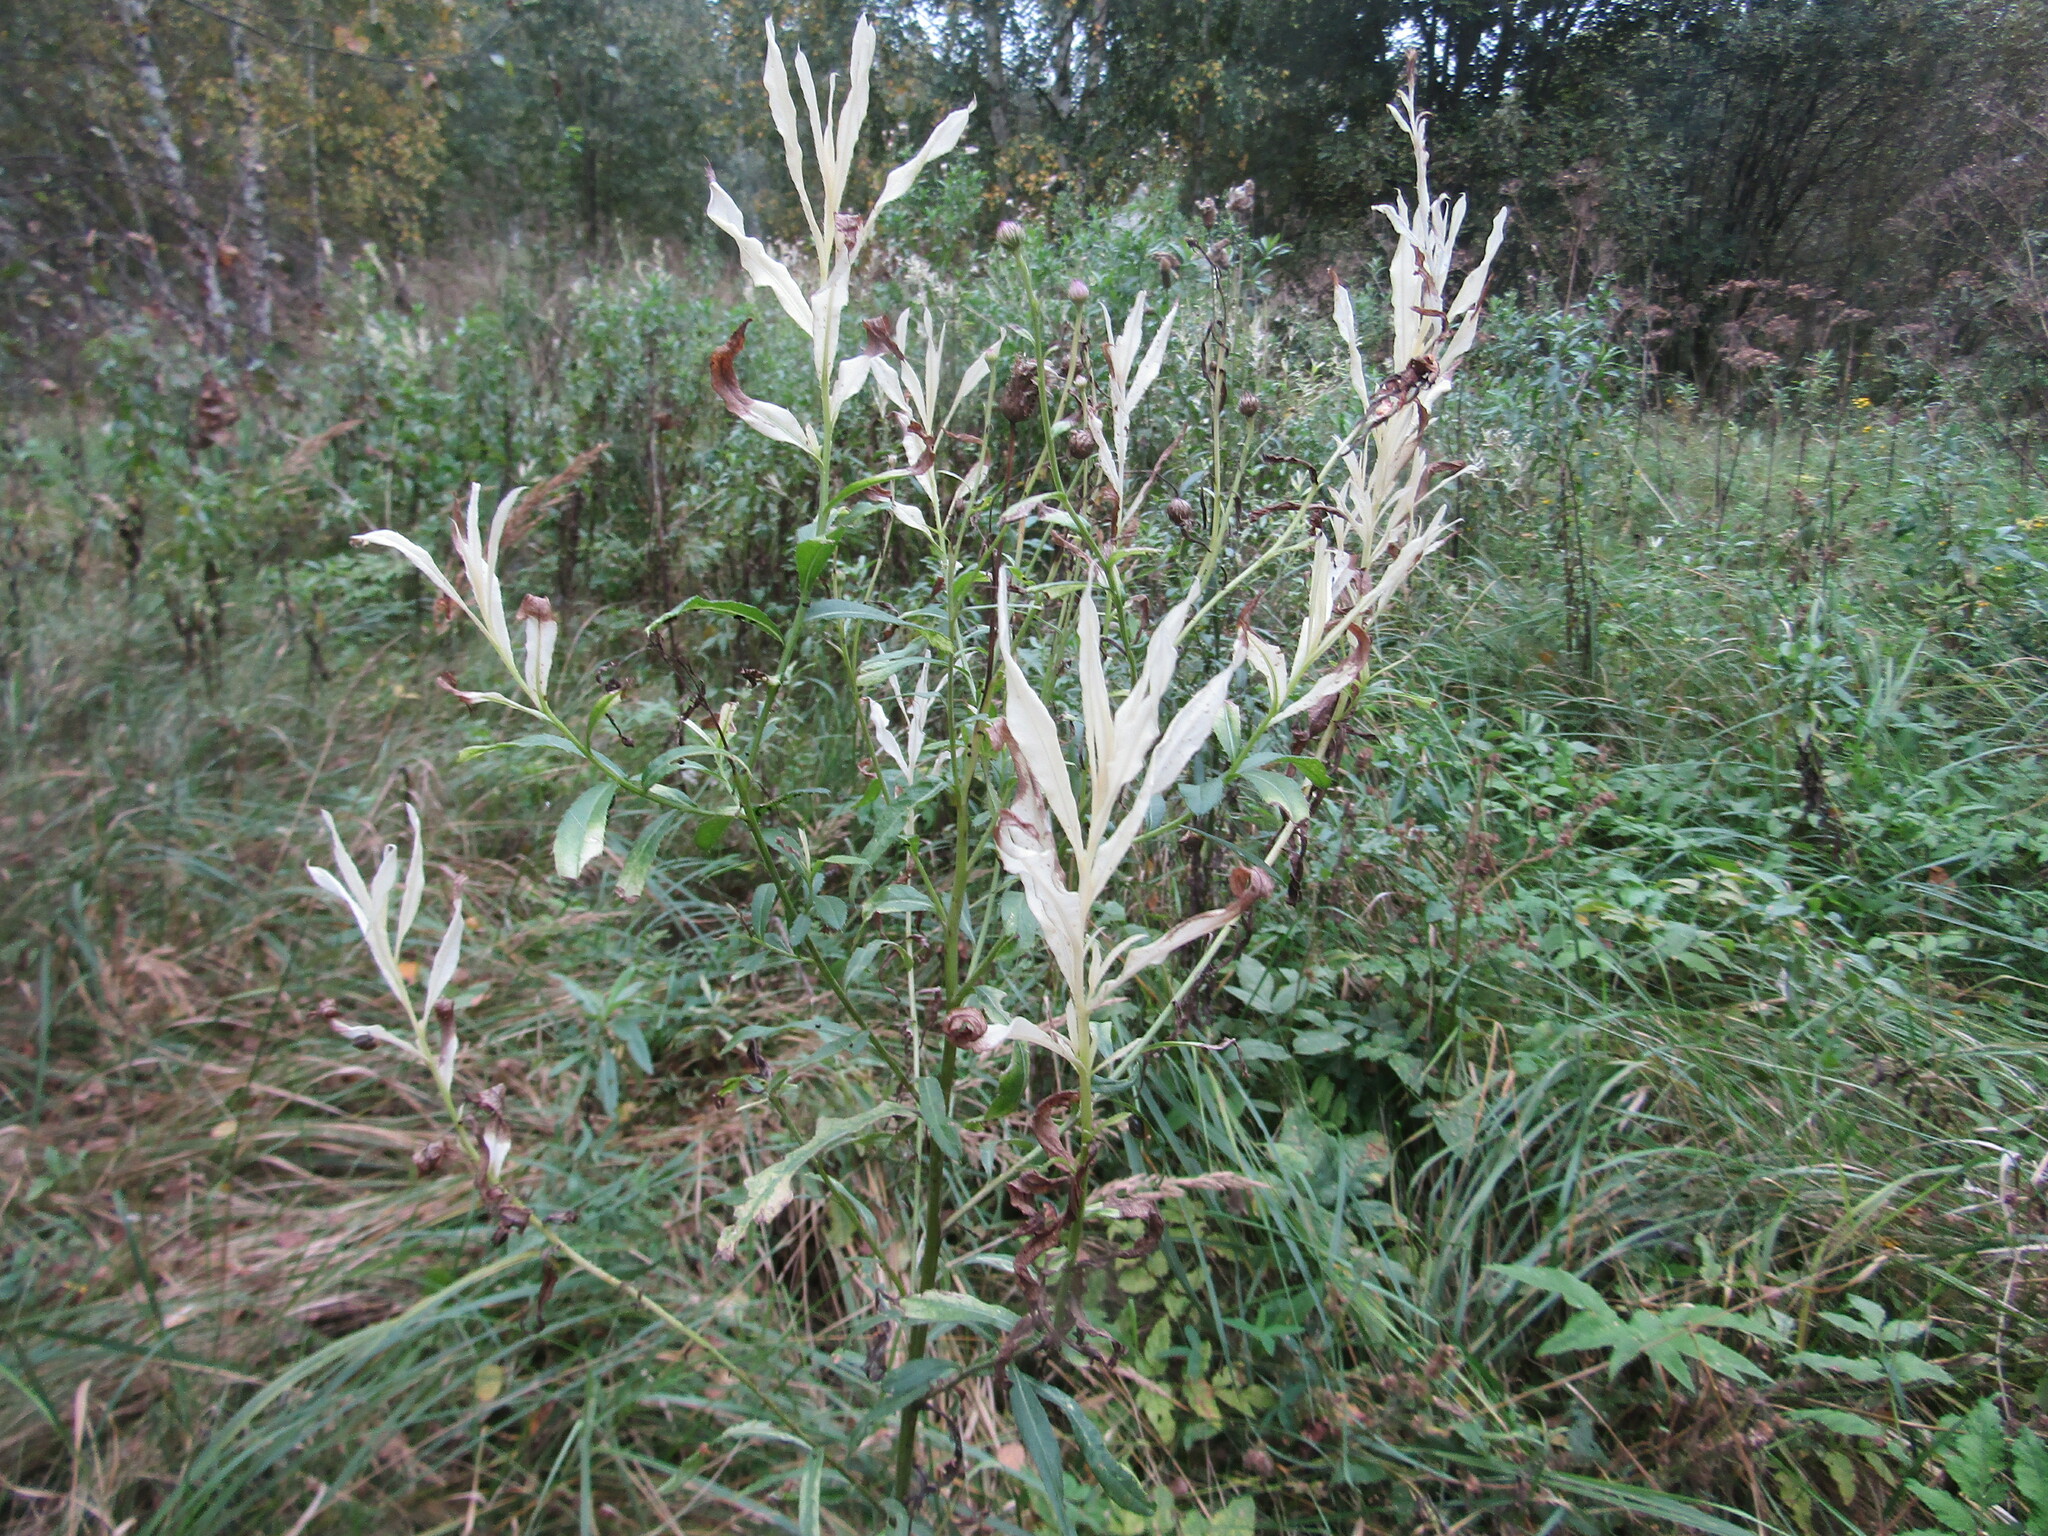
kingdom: Plantae
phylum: Tracheophyta
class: Magnoliopsida
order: Asterales
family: Asteraceae
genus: Cirsium
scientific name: Cirsium arvense
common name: Creeping thistle
